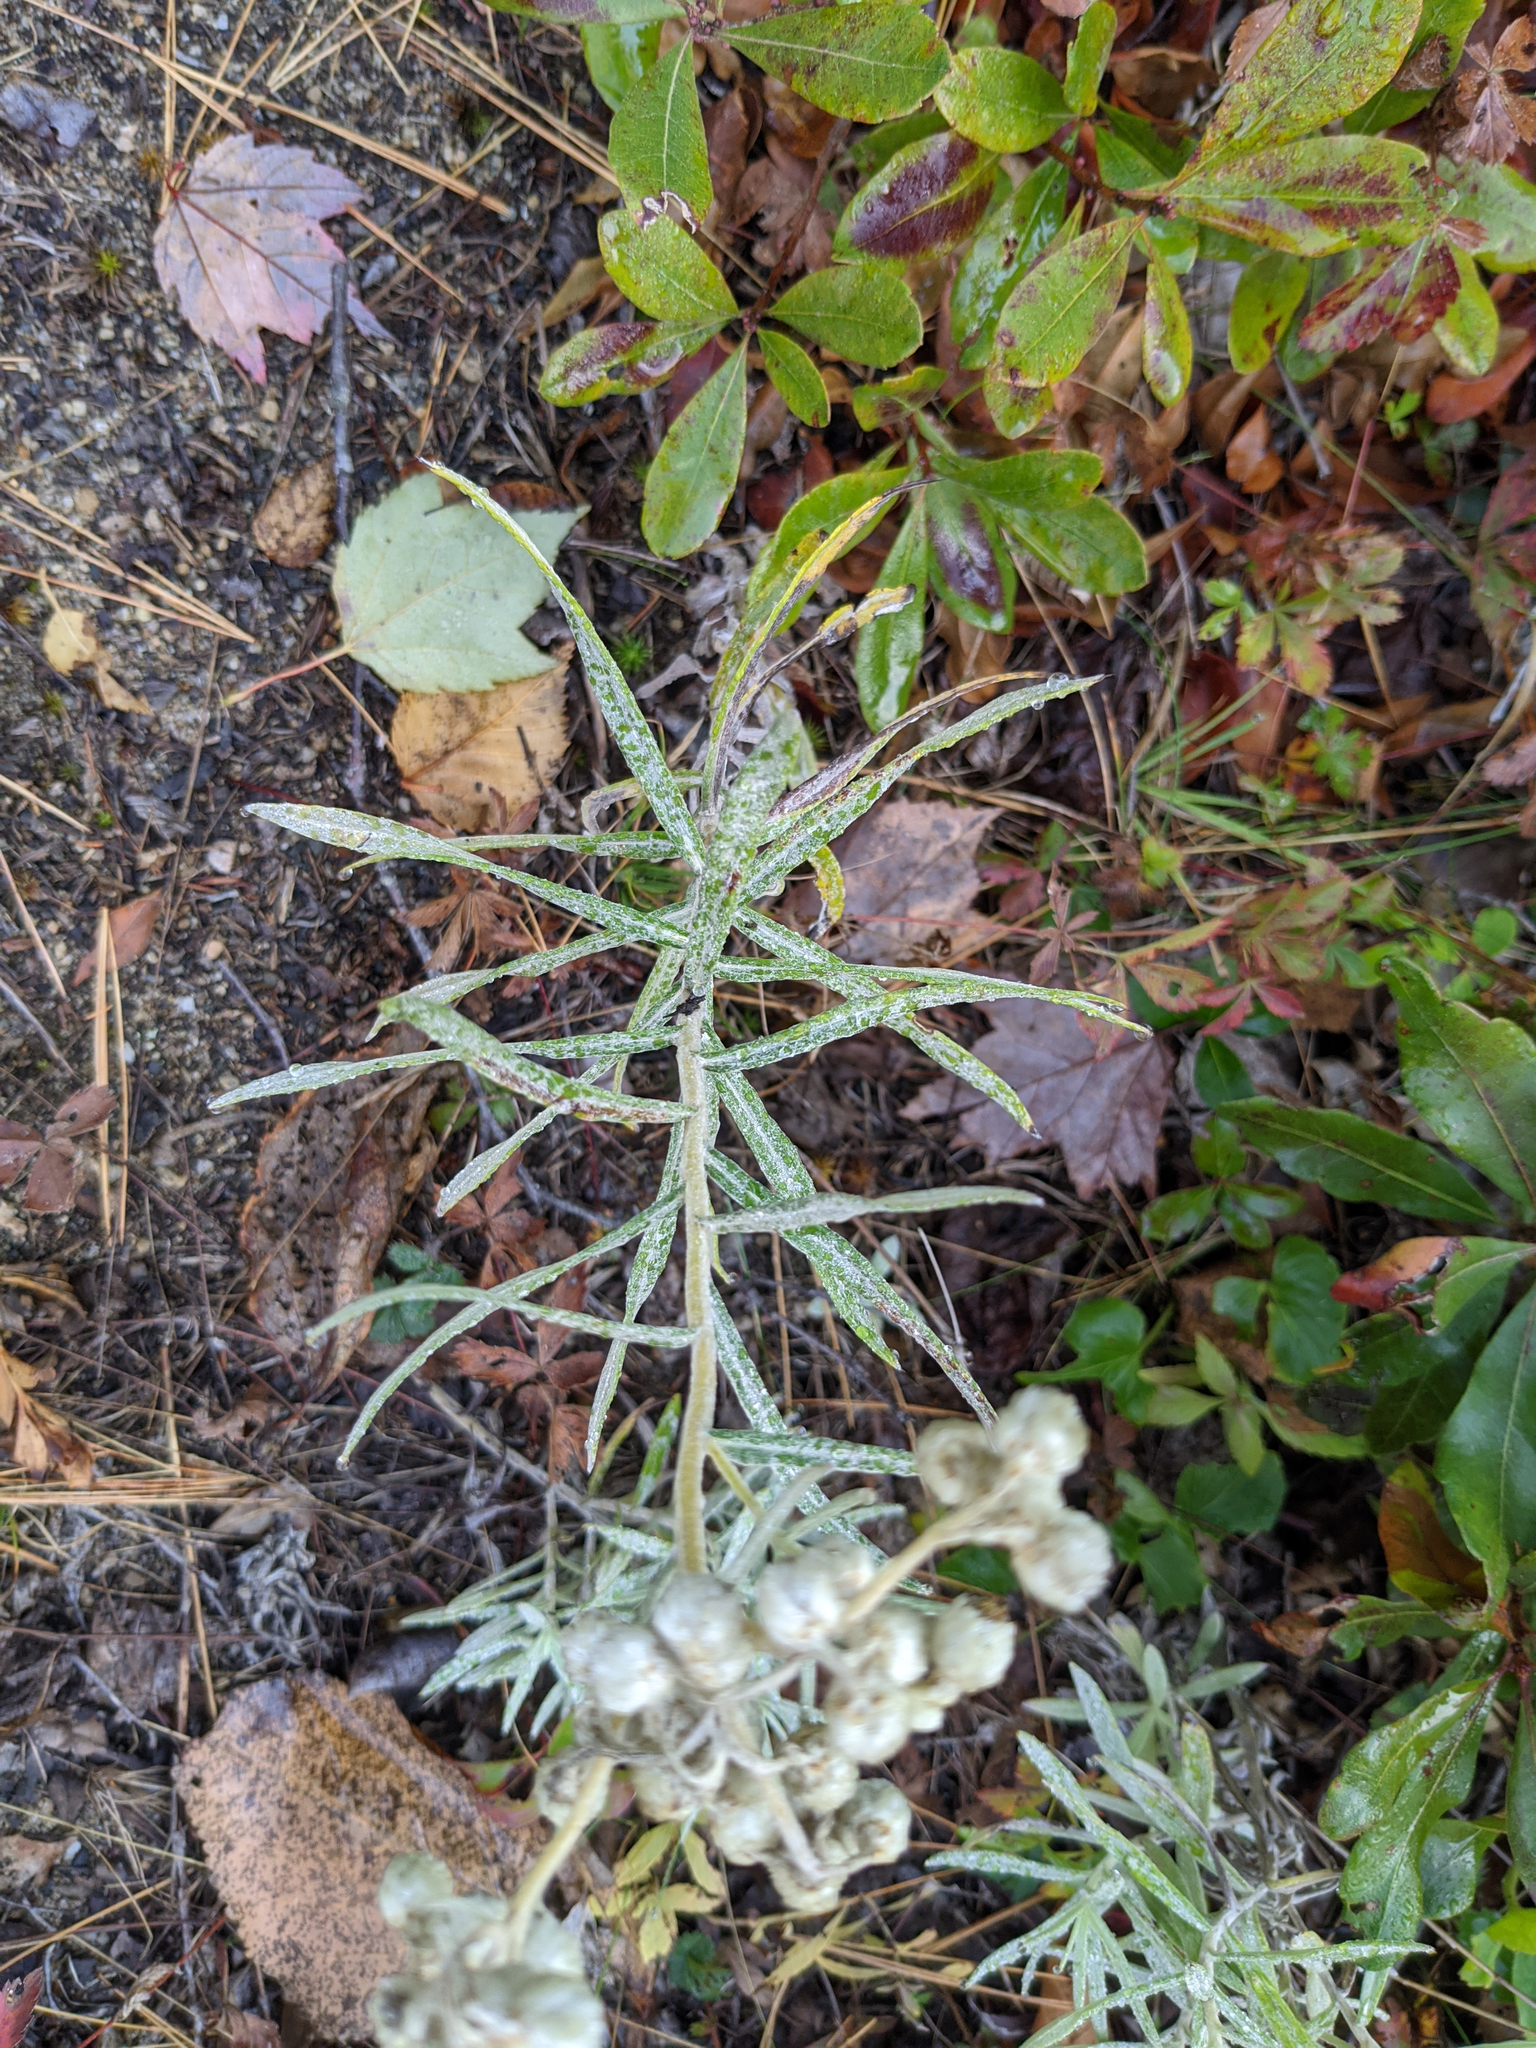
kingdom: Plantae
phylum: Tracheophyta
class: Magnoliopsida
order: Asterales
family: Asteraceae
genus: Anaphalis
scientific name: Anaphalis margaritacea
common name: Pearly everlasting
